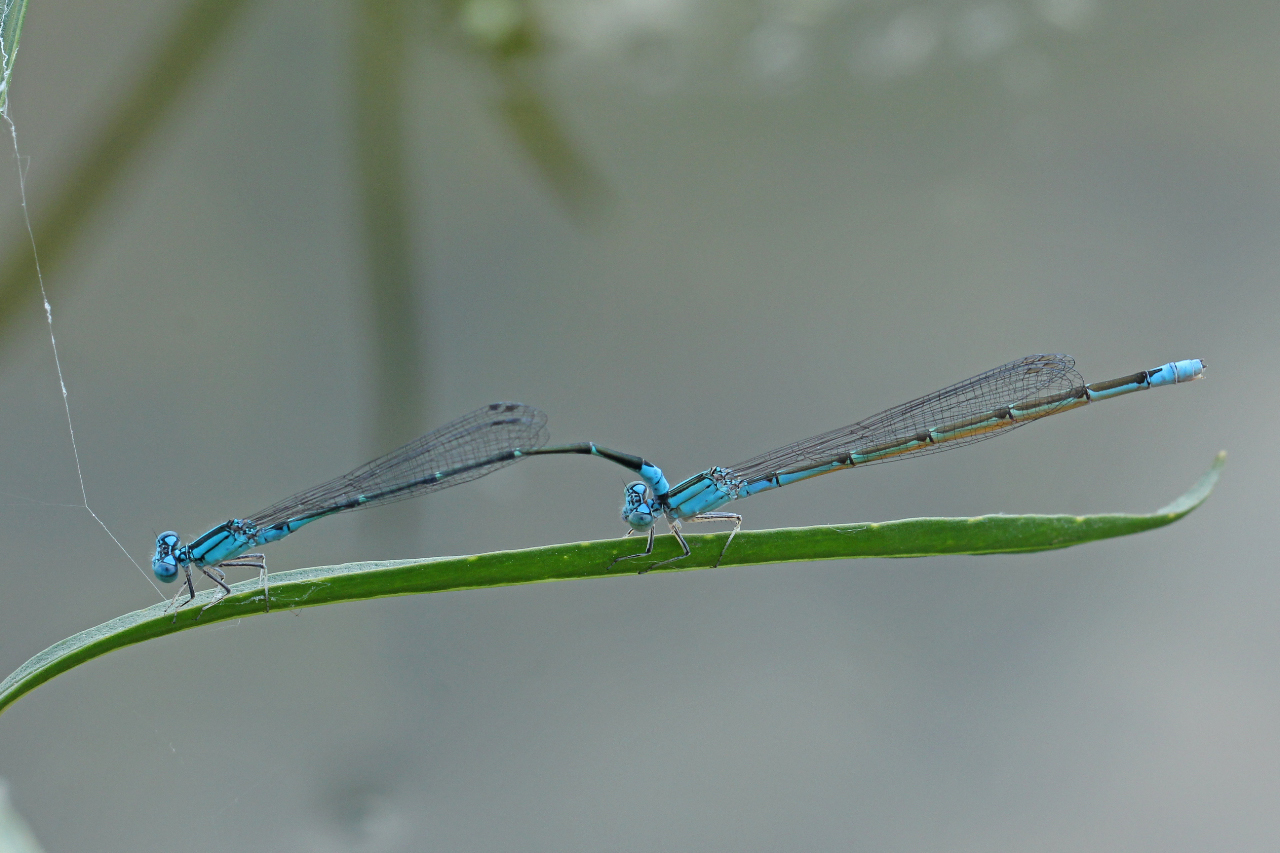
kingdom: Animalia
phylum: Arthropoda
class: Insecta
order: Odonata
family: Coenagrionidae
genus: Enallagma
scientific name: Enallagma traviatum
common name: Slender bluet
